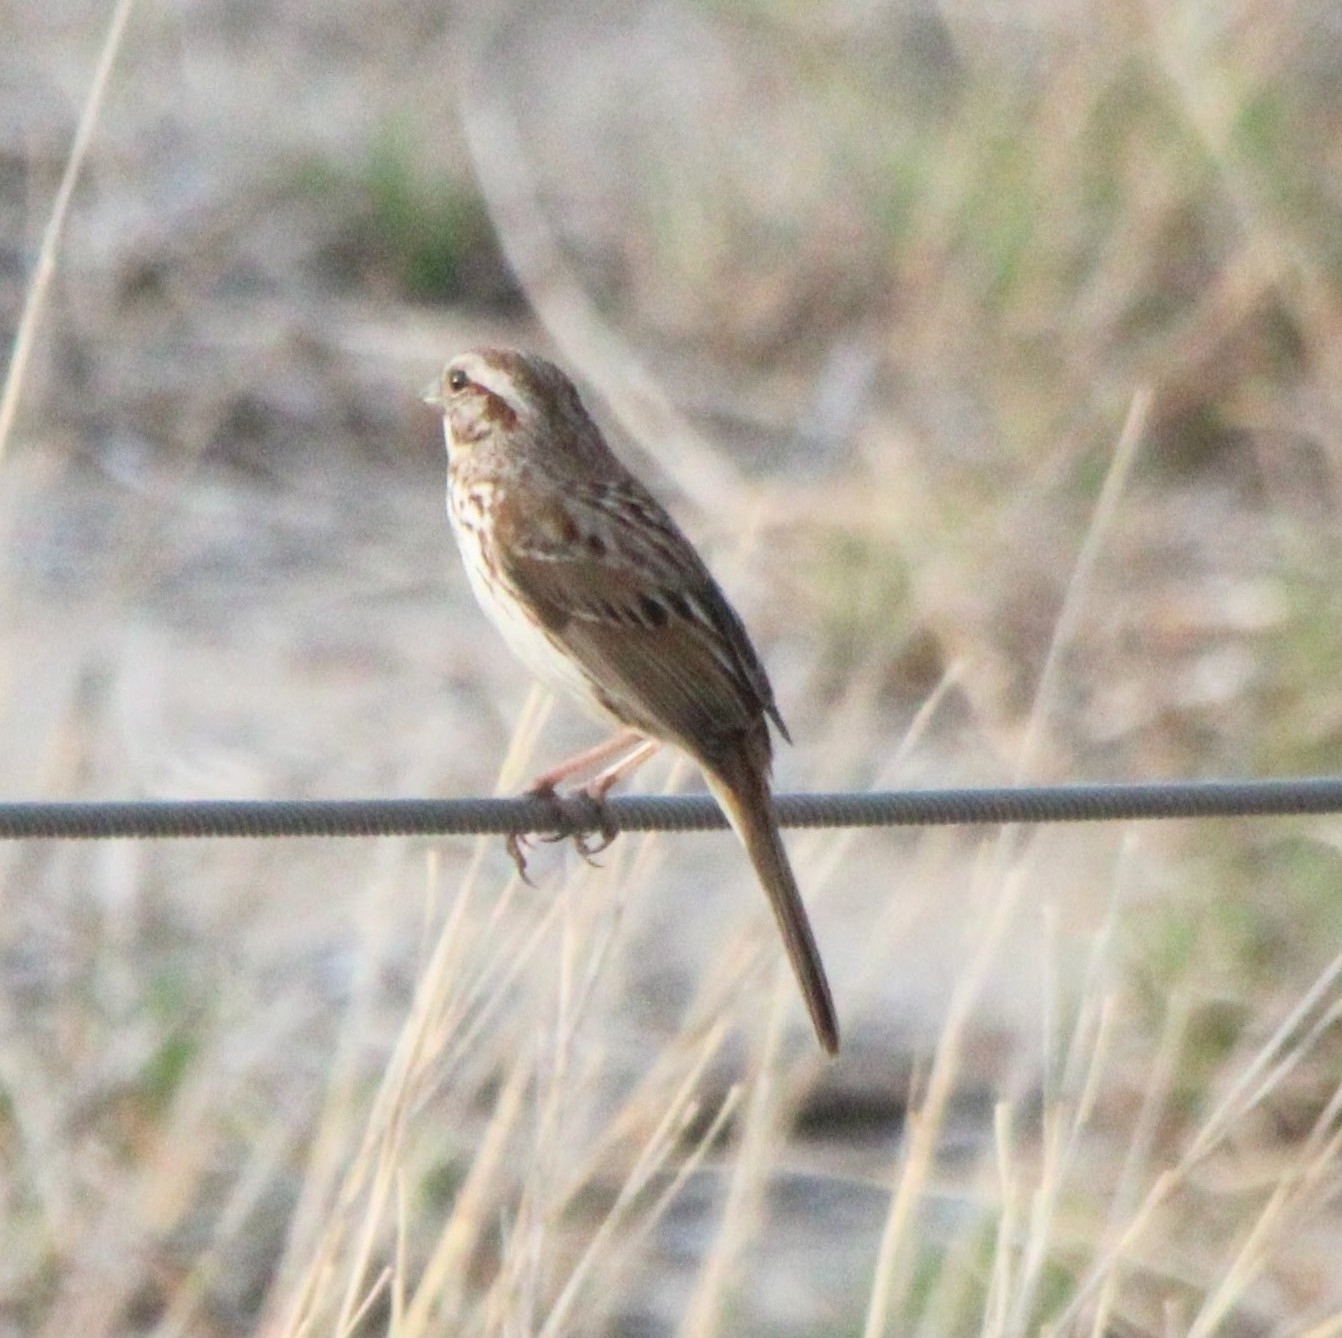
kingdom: Animalia
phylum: Chordata
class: Aves
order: Passeriformes
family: Passerellidae
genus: Melospiza
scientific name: Melospiza melodia
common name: Song sparrow
